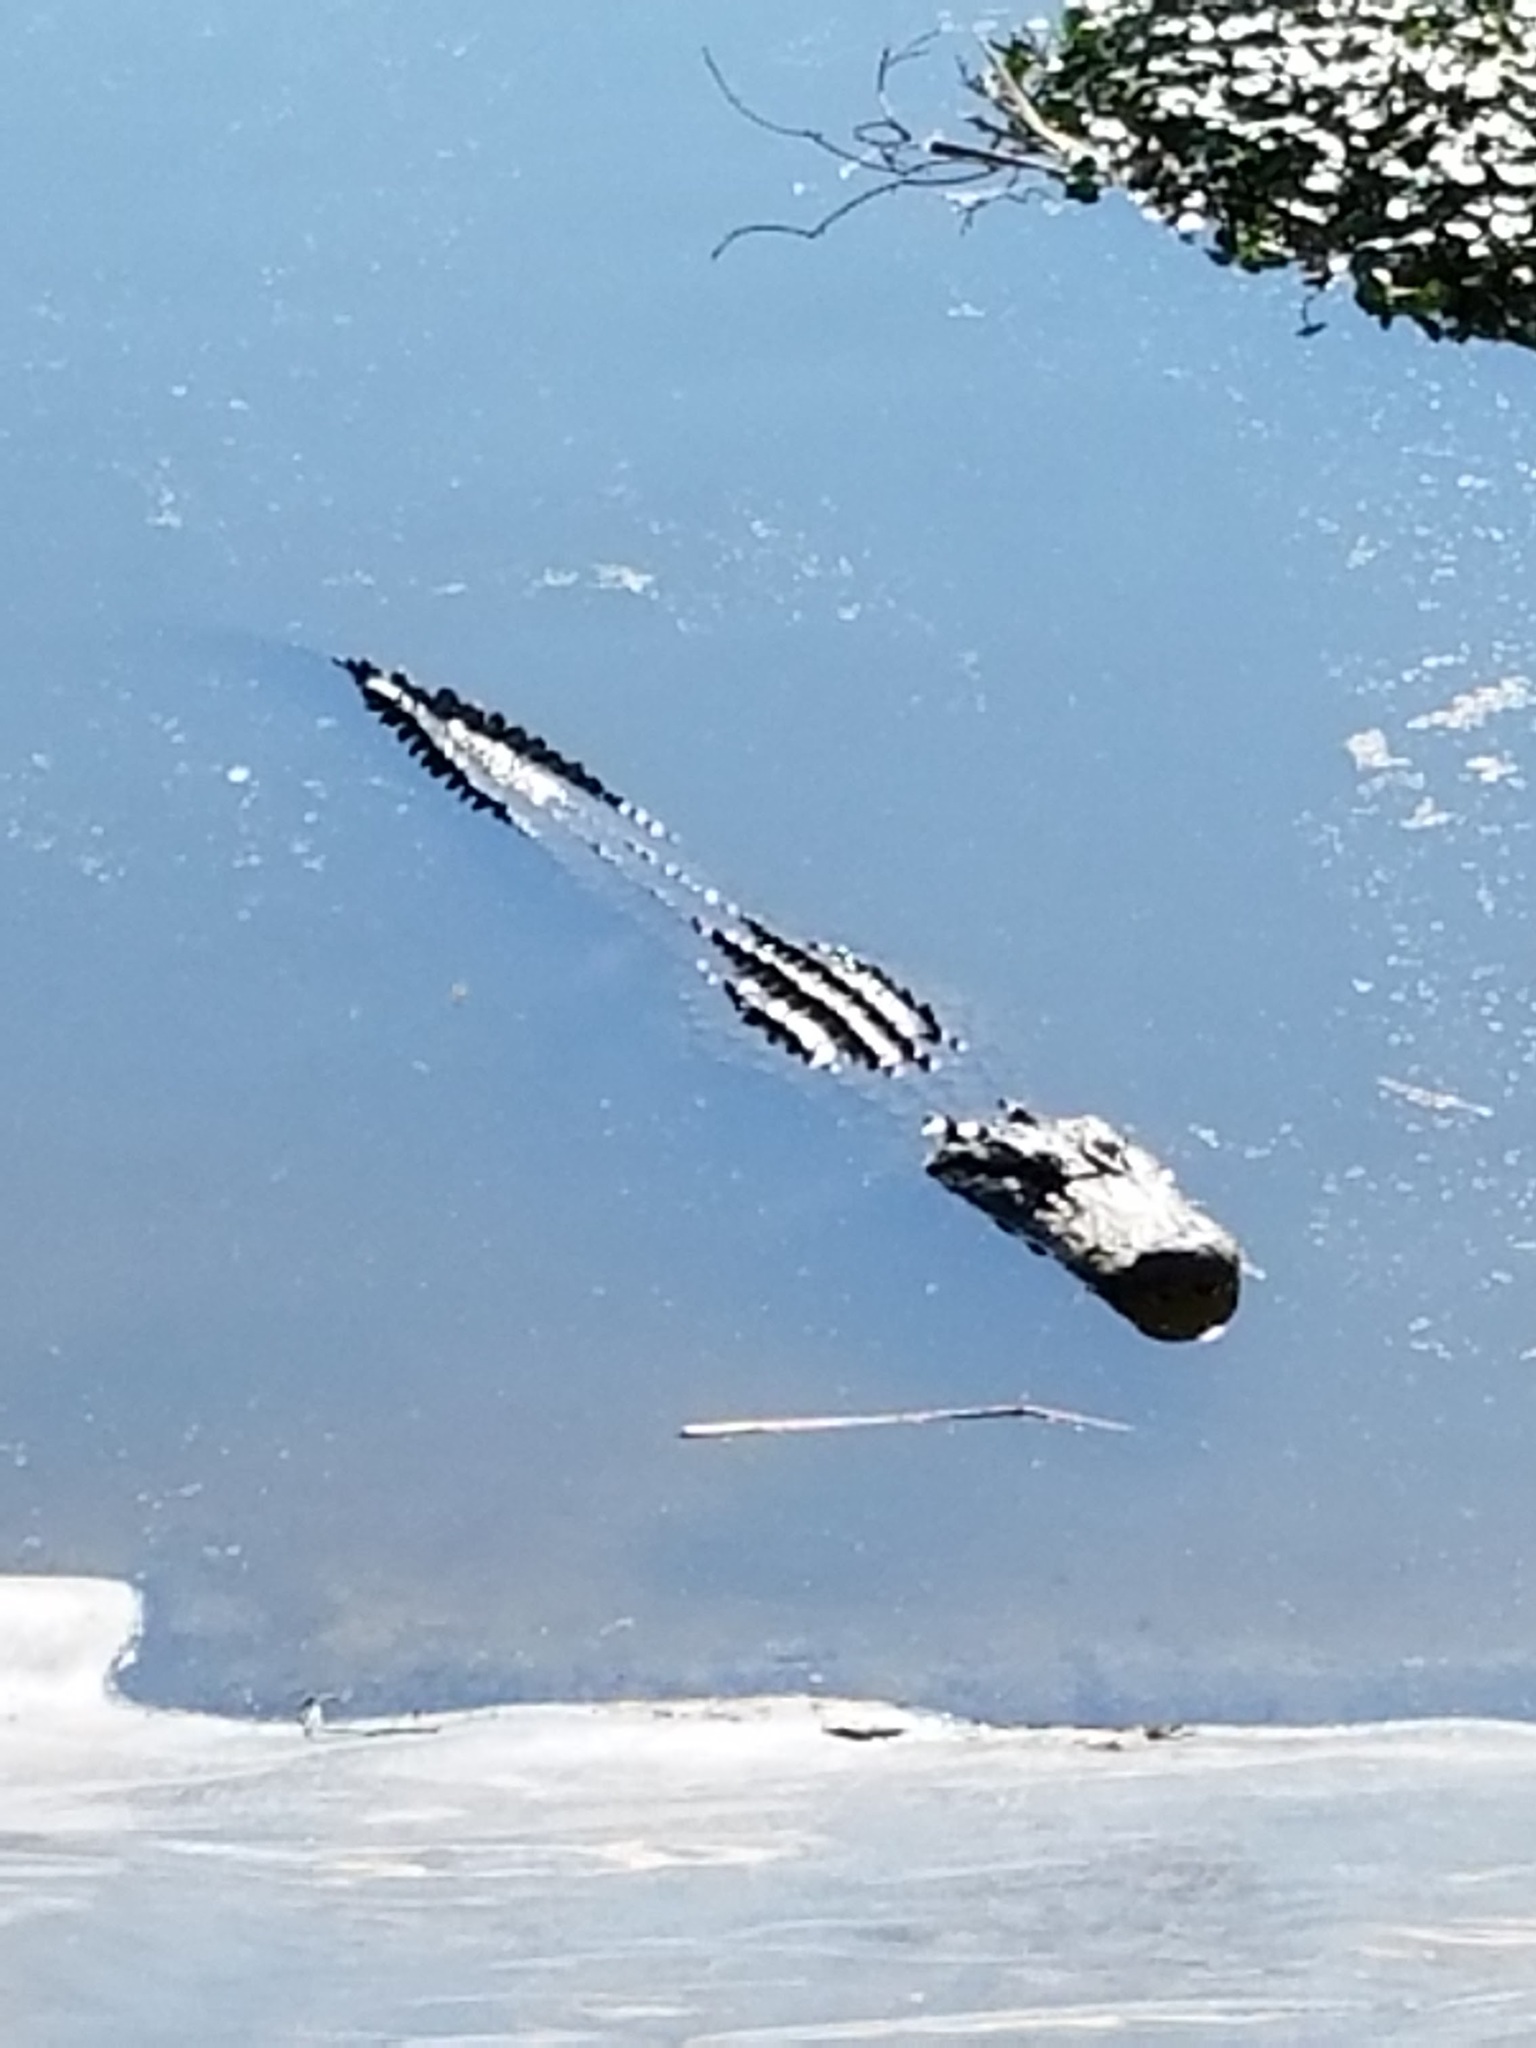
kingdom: Animalia
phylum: Chordata
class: Crocodylia
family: Alligatoridae
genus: Alligator
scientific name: Alligator mississippiensis
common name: American alligator
